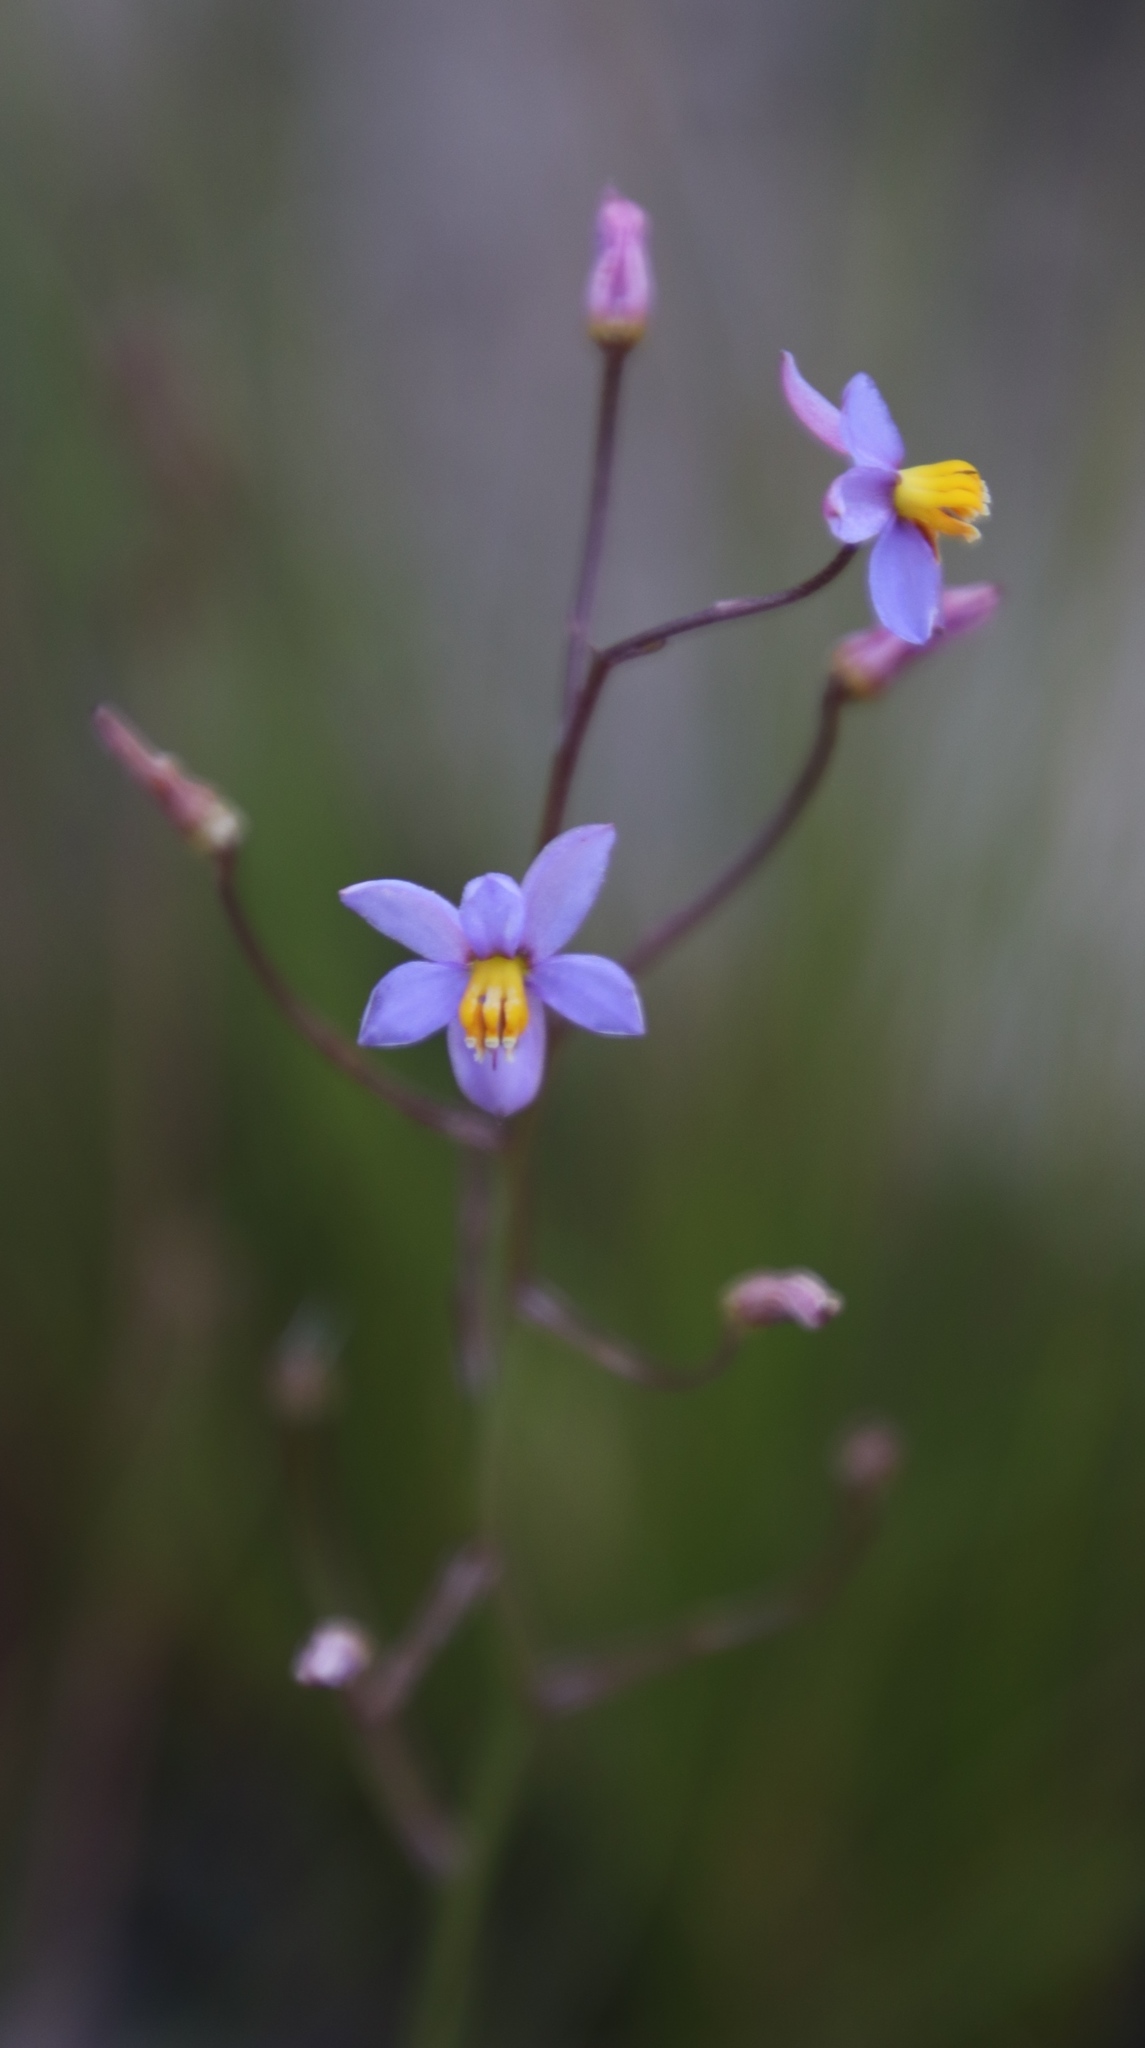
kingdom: Plantae
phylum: Tracheophyta
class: Liliopsida
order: Asparagales
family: Tecophilaeaceae
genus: Cyanella
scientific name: Cyanella hyacinthoides
